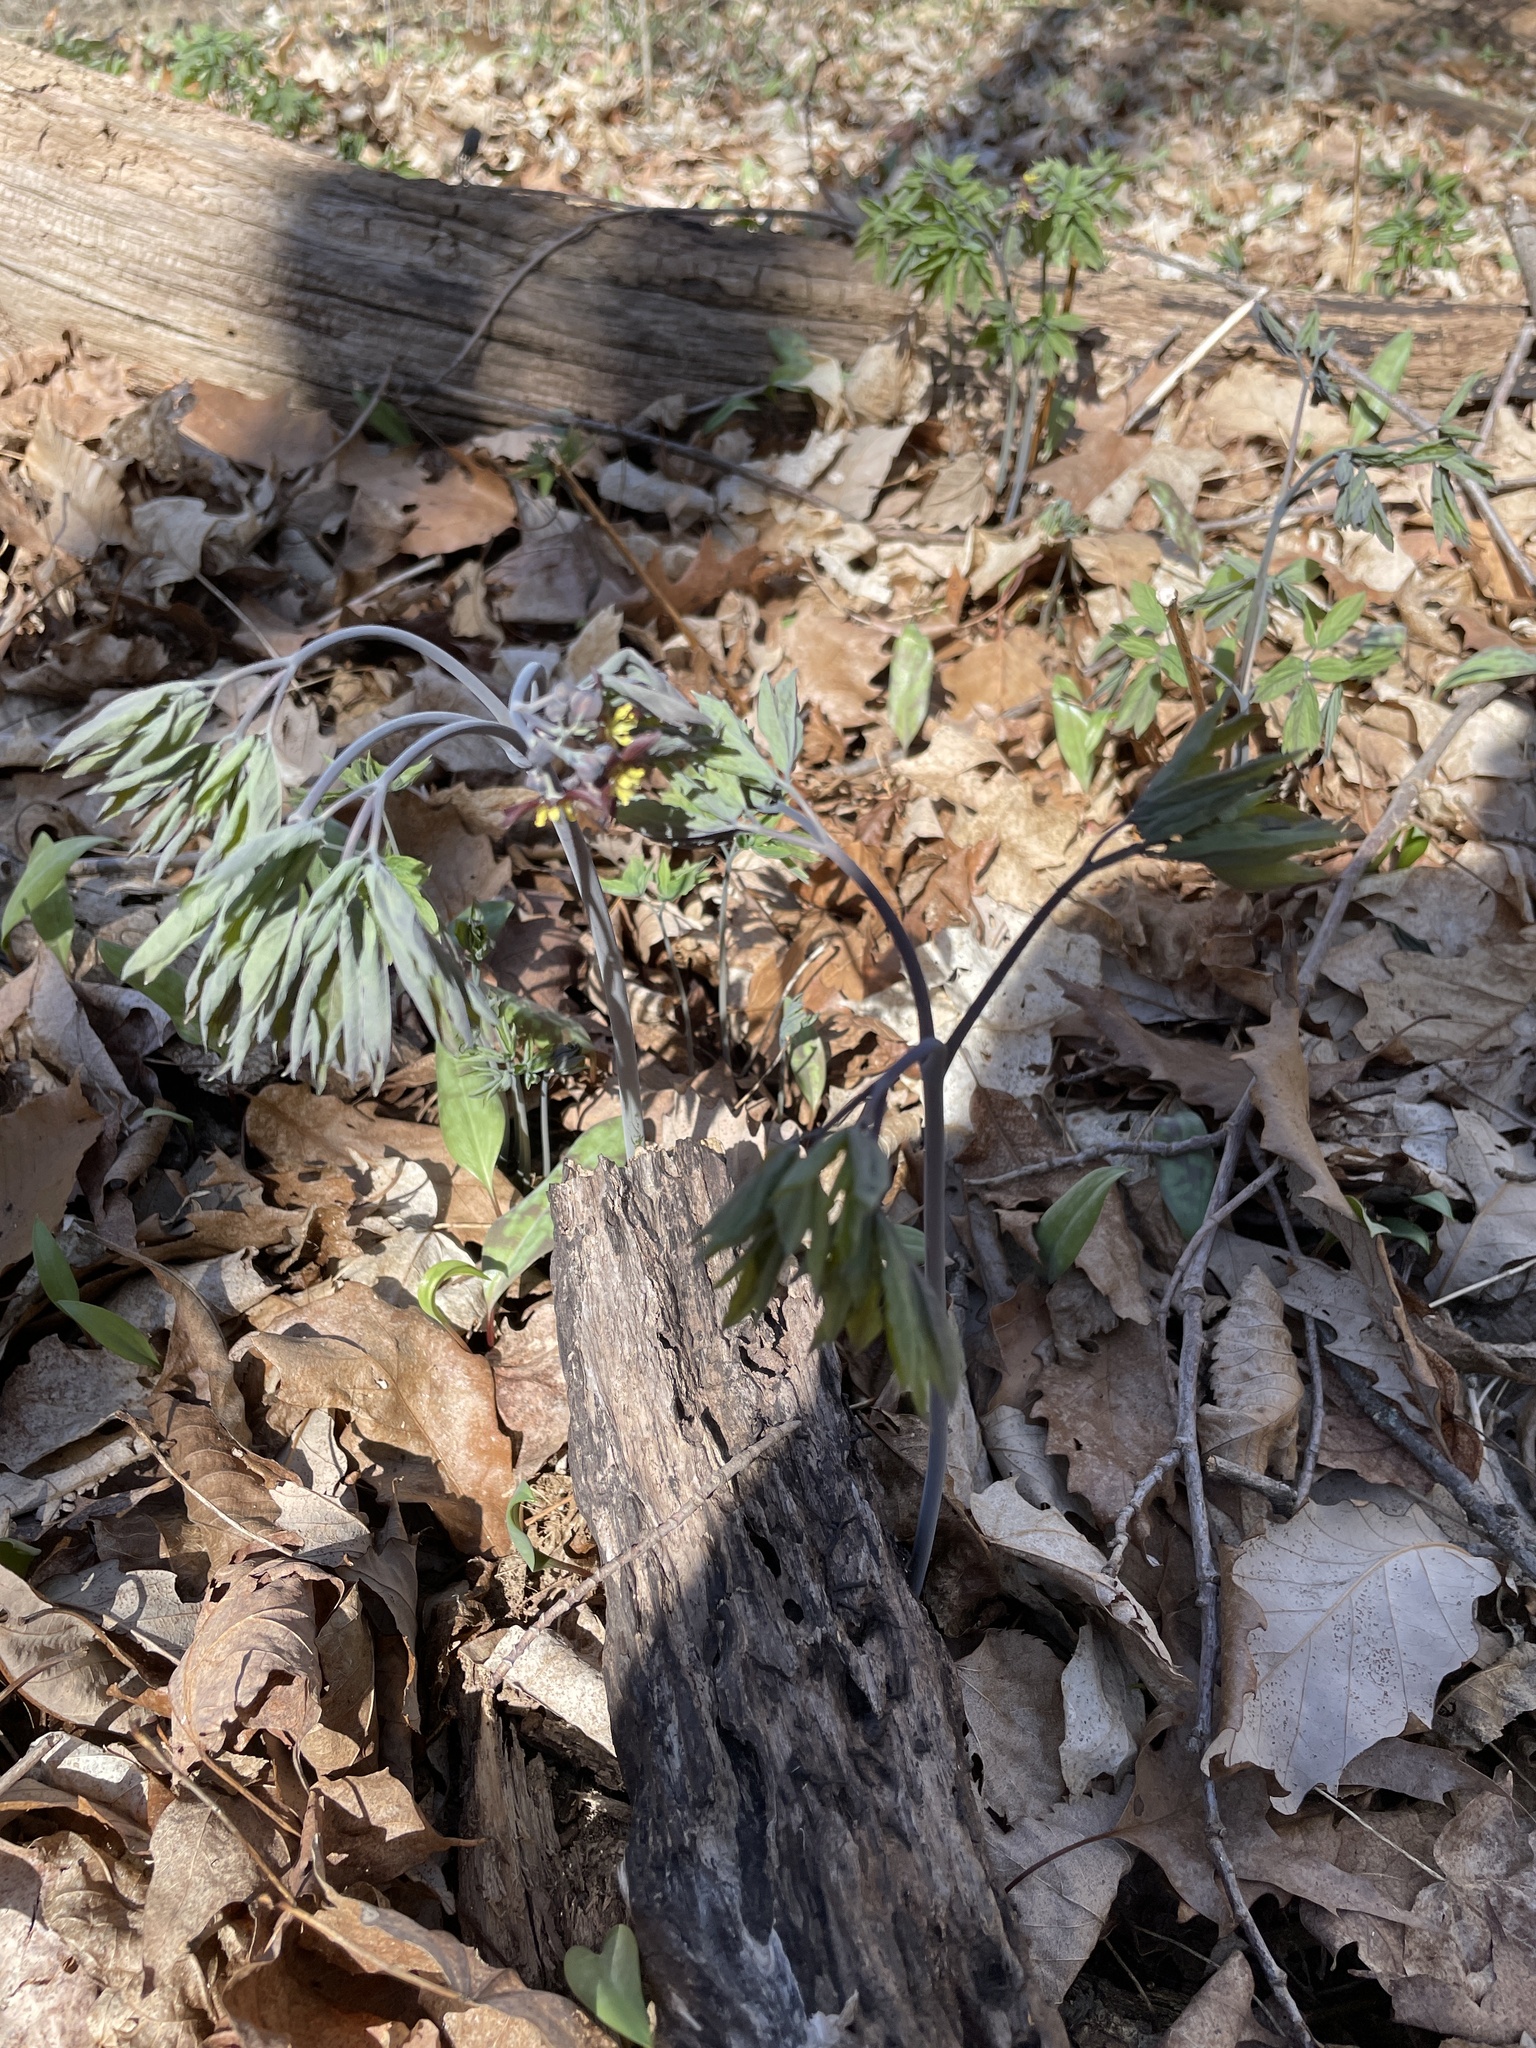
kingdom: Plantae
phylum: Tracheophyta
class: Magnoliopsida
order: Ranunculales
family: Berberidaceae
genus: Caulophyllum
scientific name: Caulophyllum giganteum
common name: Blue cohosh
